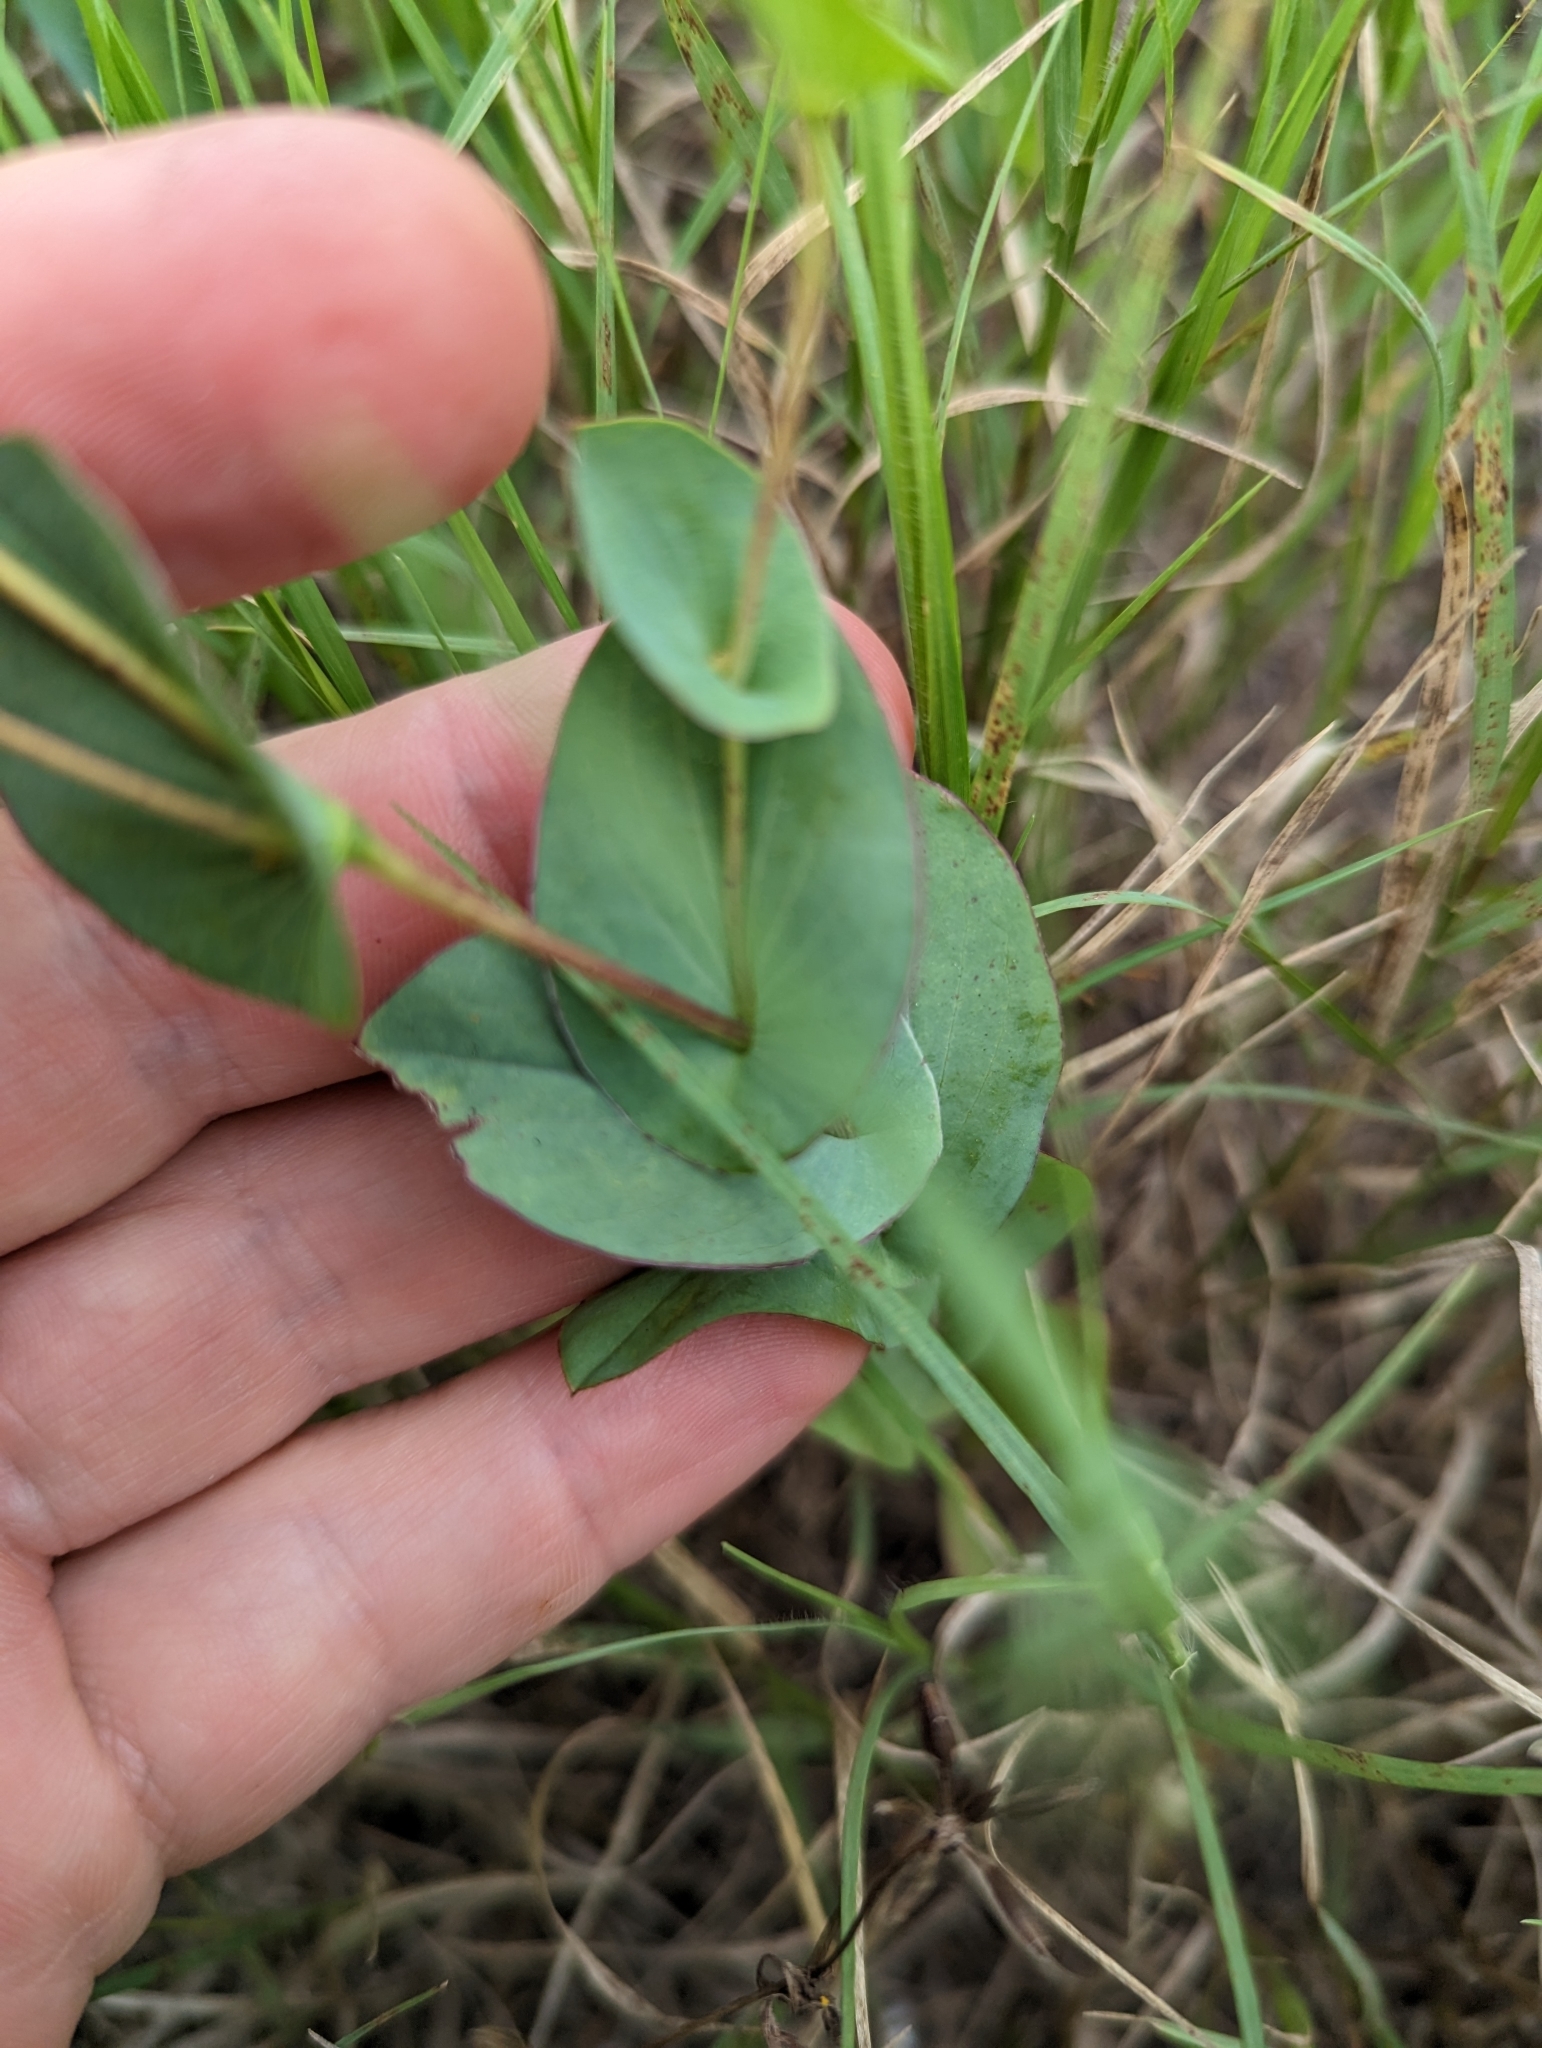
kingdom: Plantae
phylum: Tracheophyta
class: Magnoliopsida
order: Apiales
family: Apiaceae
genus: Bupleurum
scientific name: Bupleurum rotundifolium
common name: Thorow-wax
